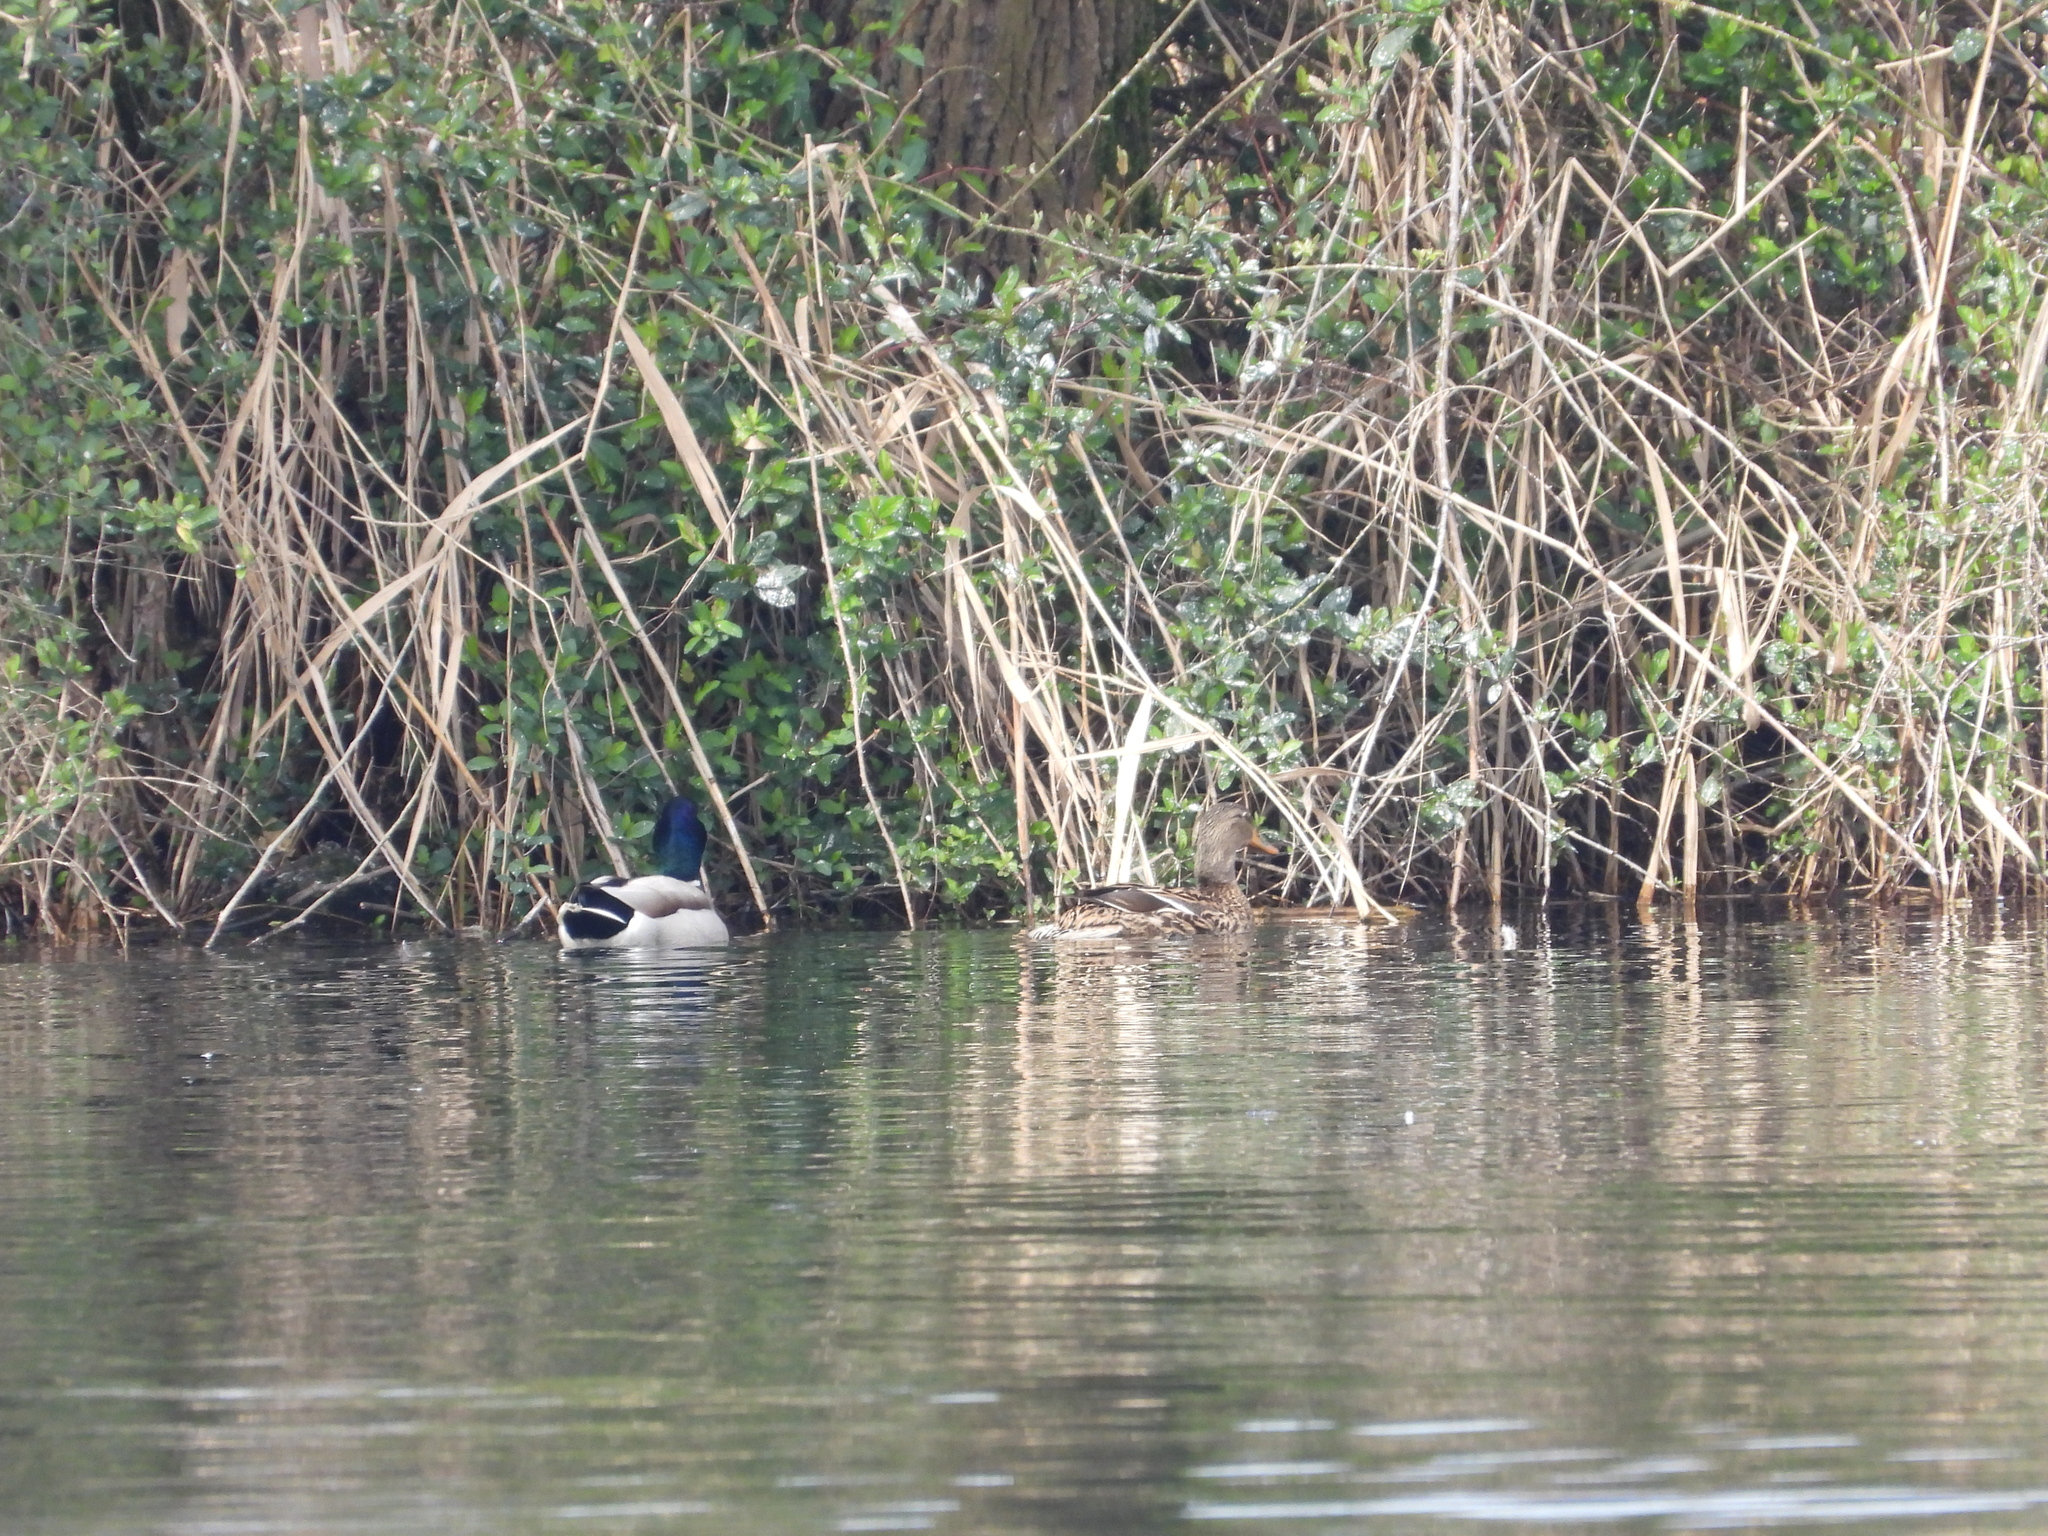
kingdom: Animalia
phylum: Chordata
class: Aves
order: Anseriformes
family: Anatidae
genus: Anas
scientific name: Anas platyrhynchos
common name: Mallard
